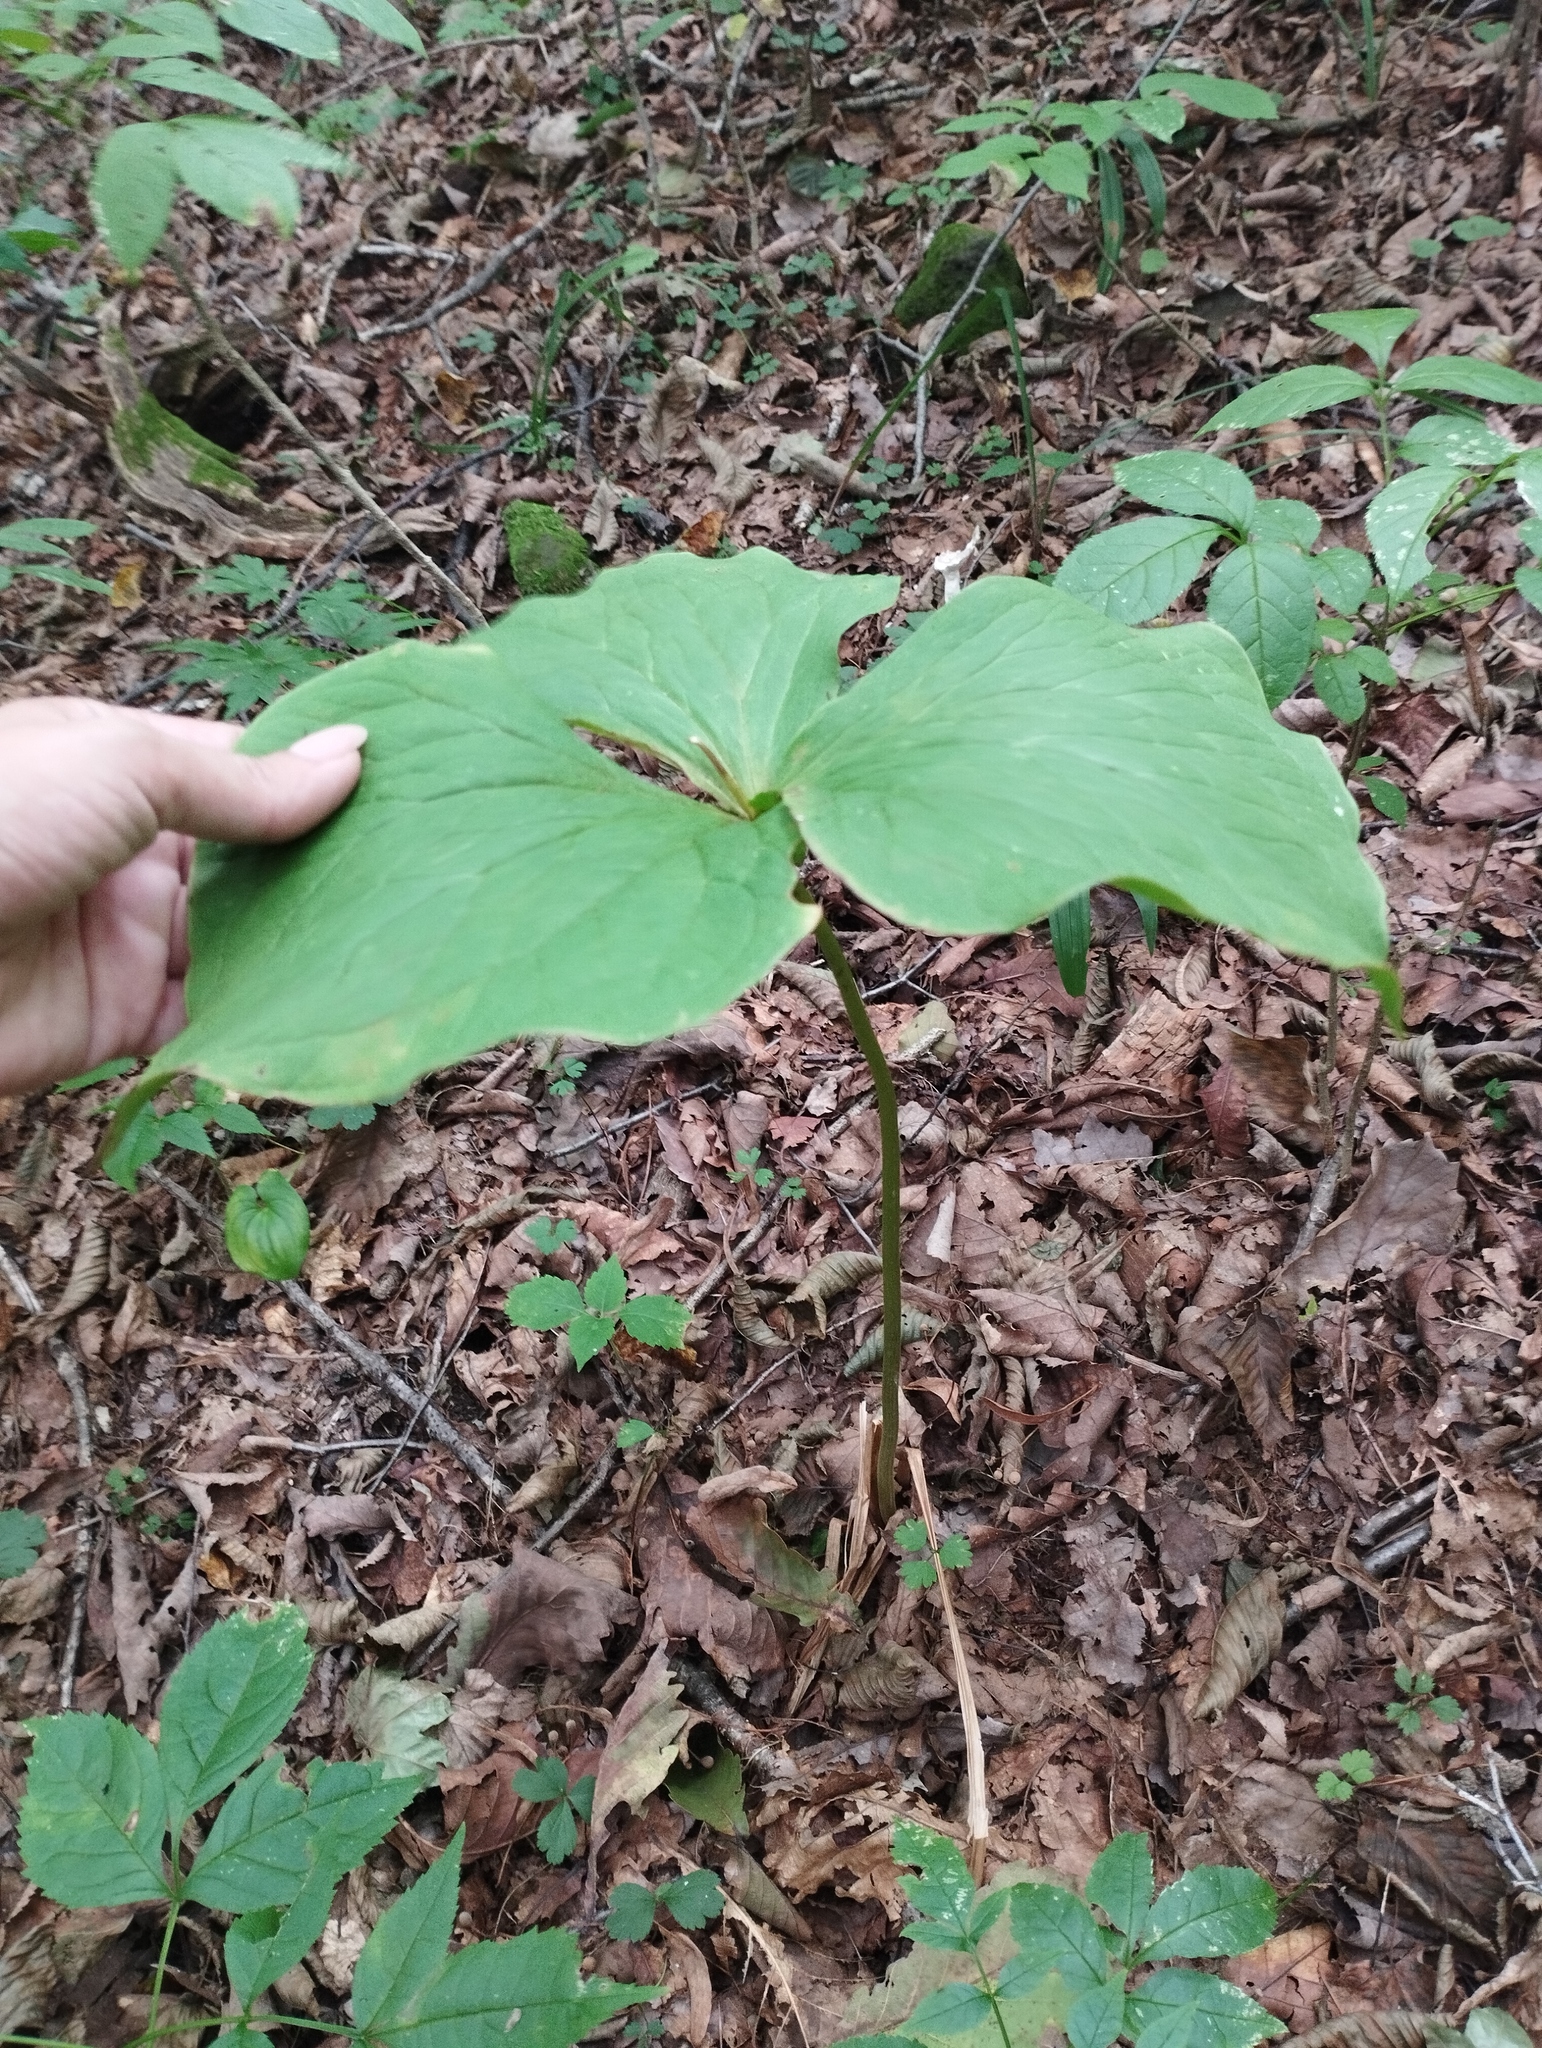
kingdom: Plantae
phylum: Tracheophyta
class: Liliopsida
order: Liliales
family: Melanthiaceae
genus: Trillium
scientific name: Trillium komarovii
